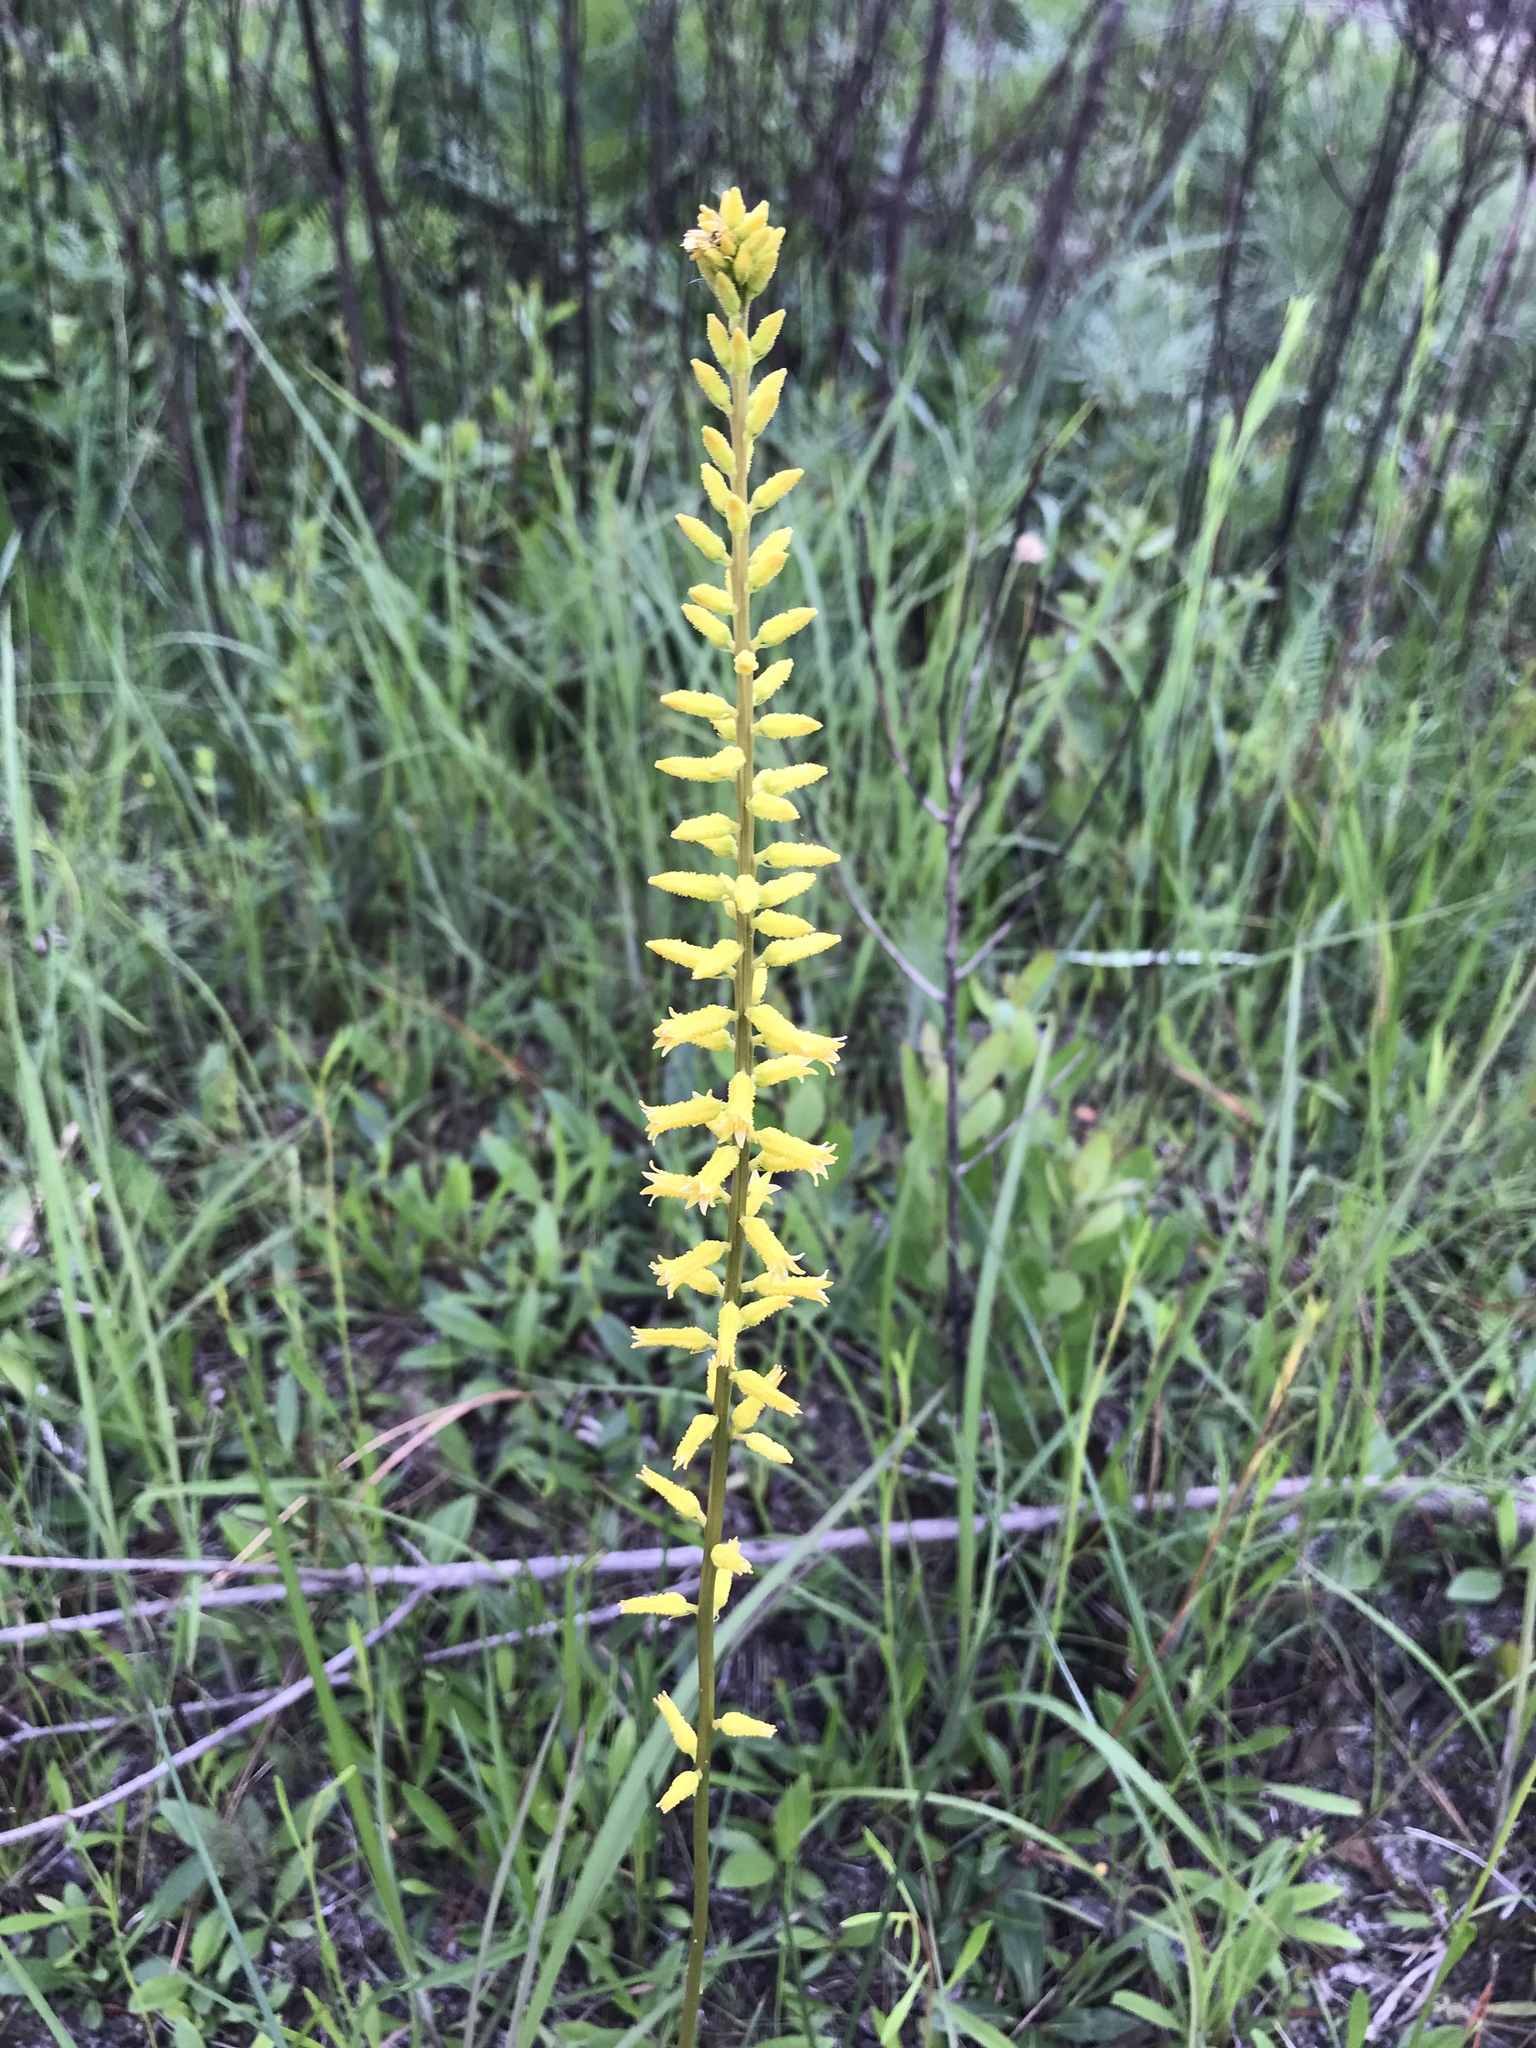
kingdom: Plantae
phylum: Tracheophyta
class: Liliopsida
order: Dioscoreales
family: Nartheciaceae
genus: Aletris
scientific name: Aletris lutea
